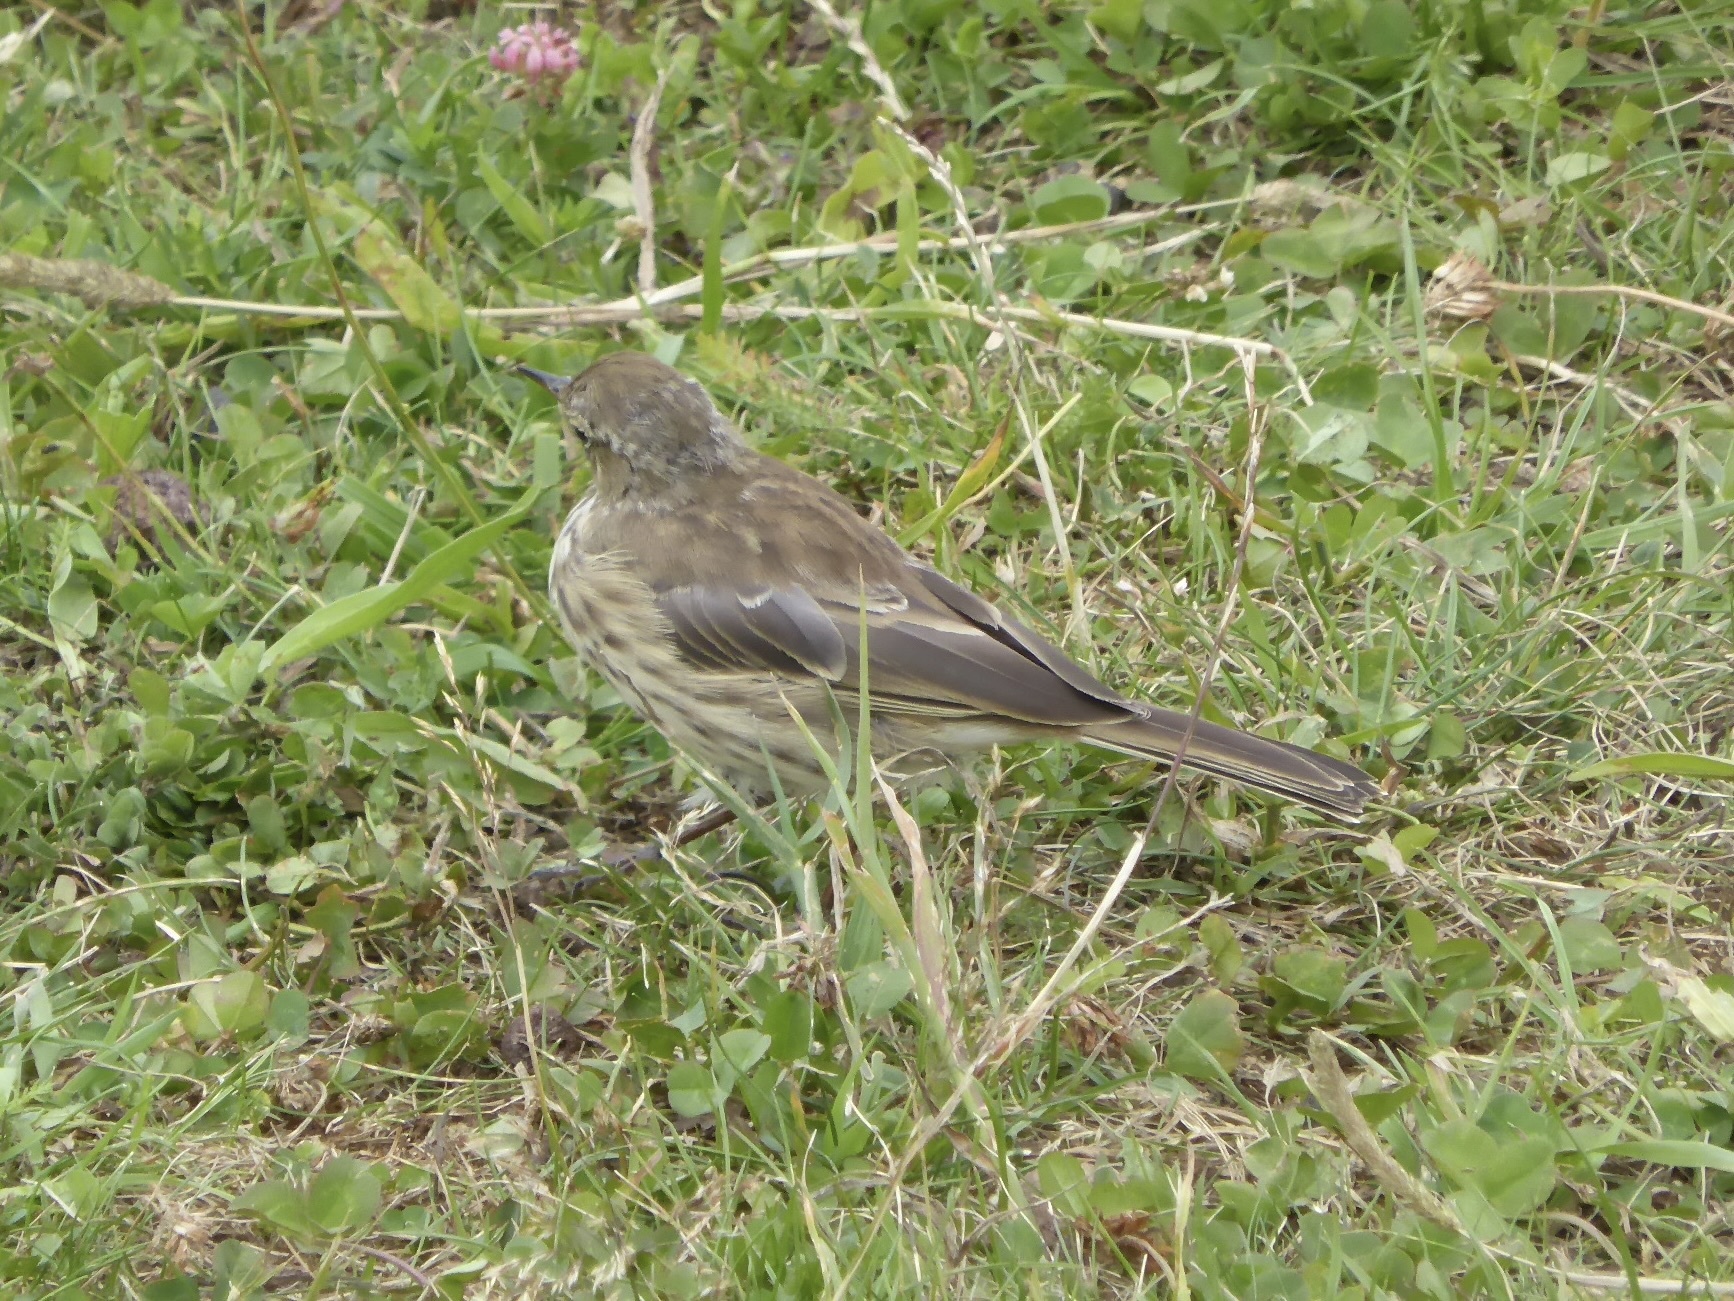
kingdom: Animalia
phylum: Chordata
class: Aves
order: Passeriformes
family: Motacillidae
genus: Anthus
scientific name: Anthus spinoletta
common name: Water pipit
